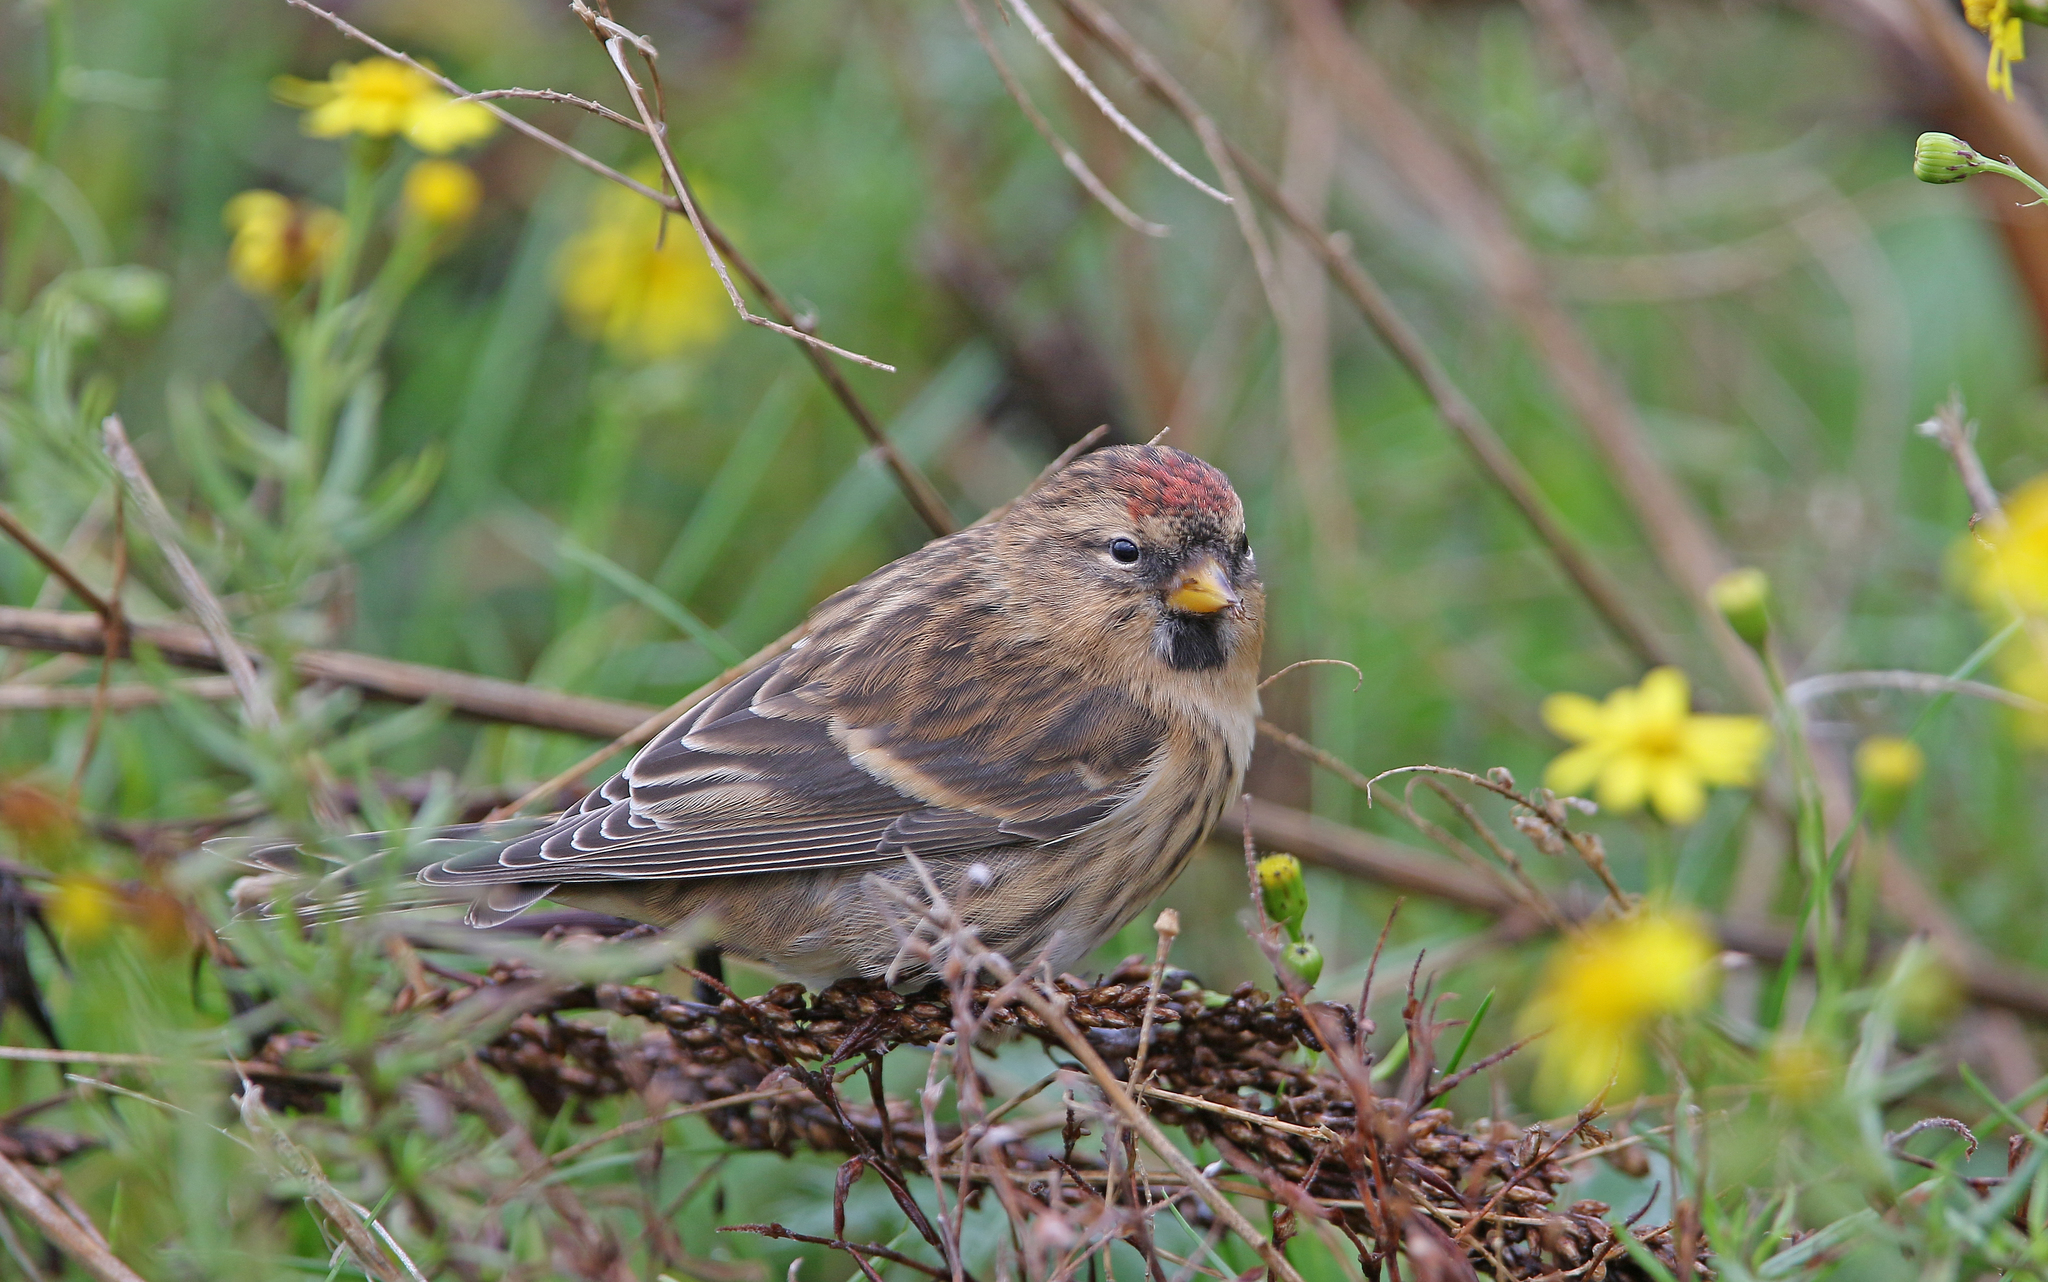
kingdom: Animalia
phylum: Chordata
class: Aves
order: Passeriformes
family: Fringillidae
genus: Acanthis
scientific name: Acanthis flammea
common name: Common redpoll
